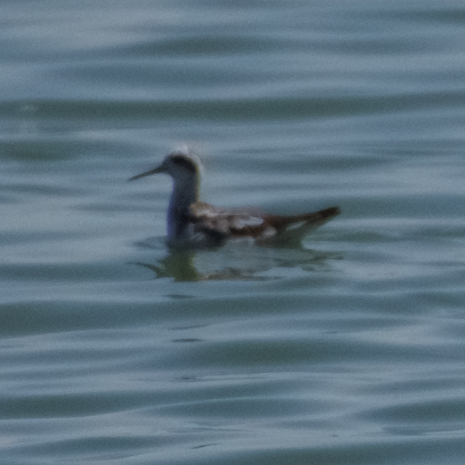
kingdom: Animalia
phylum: Chordata
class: Aves
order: Charadriiformes
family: Scolopacidae
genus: Phalaropus
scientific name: Phalaropus lobatus
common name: Red-necked phalarope
